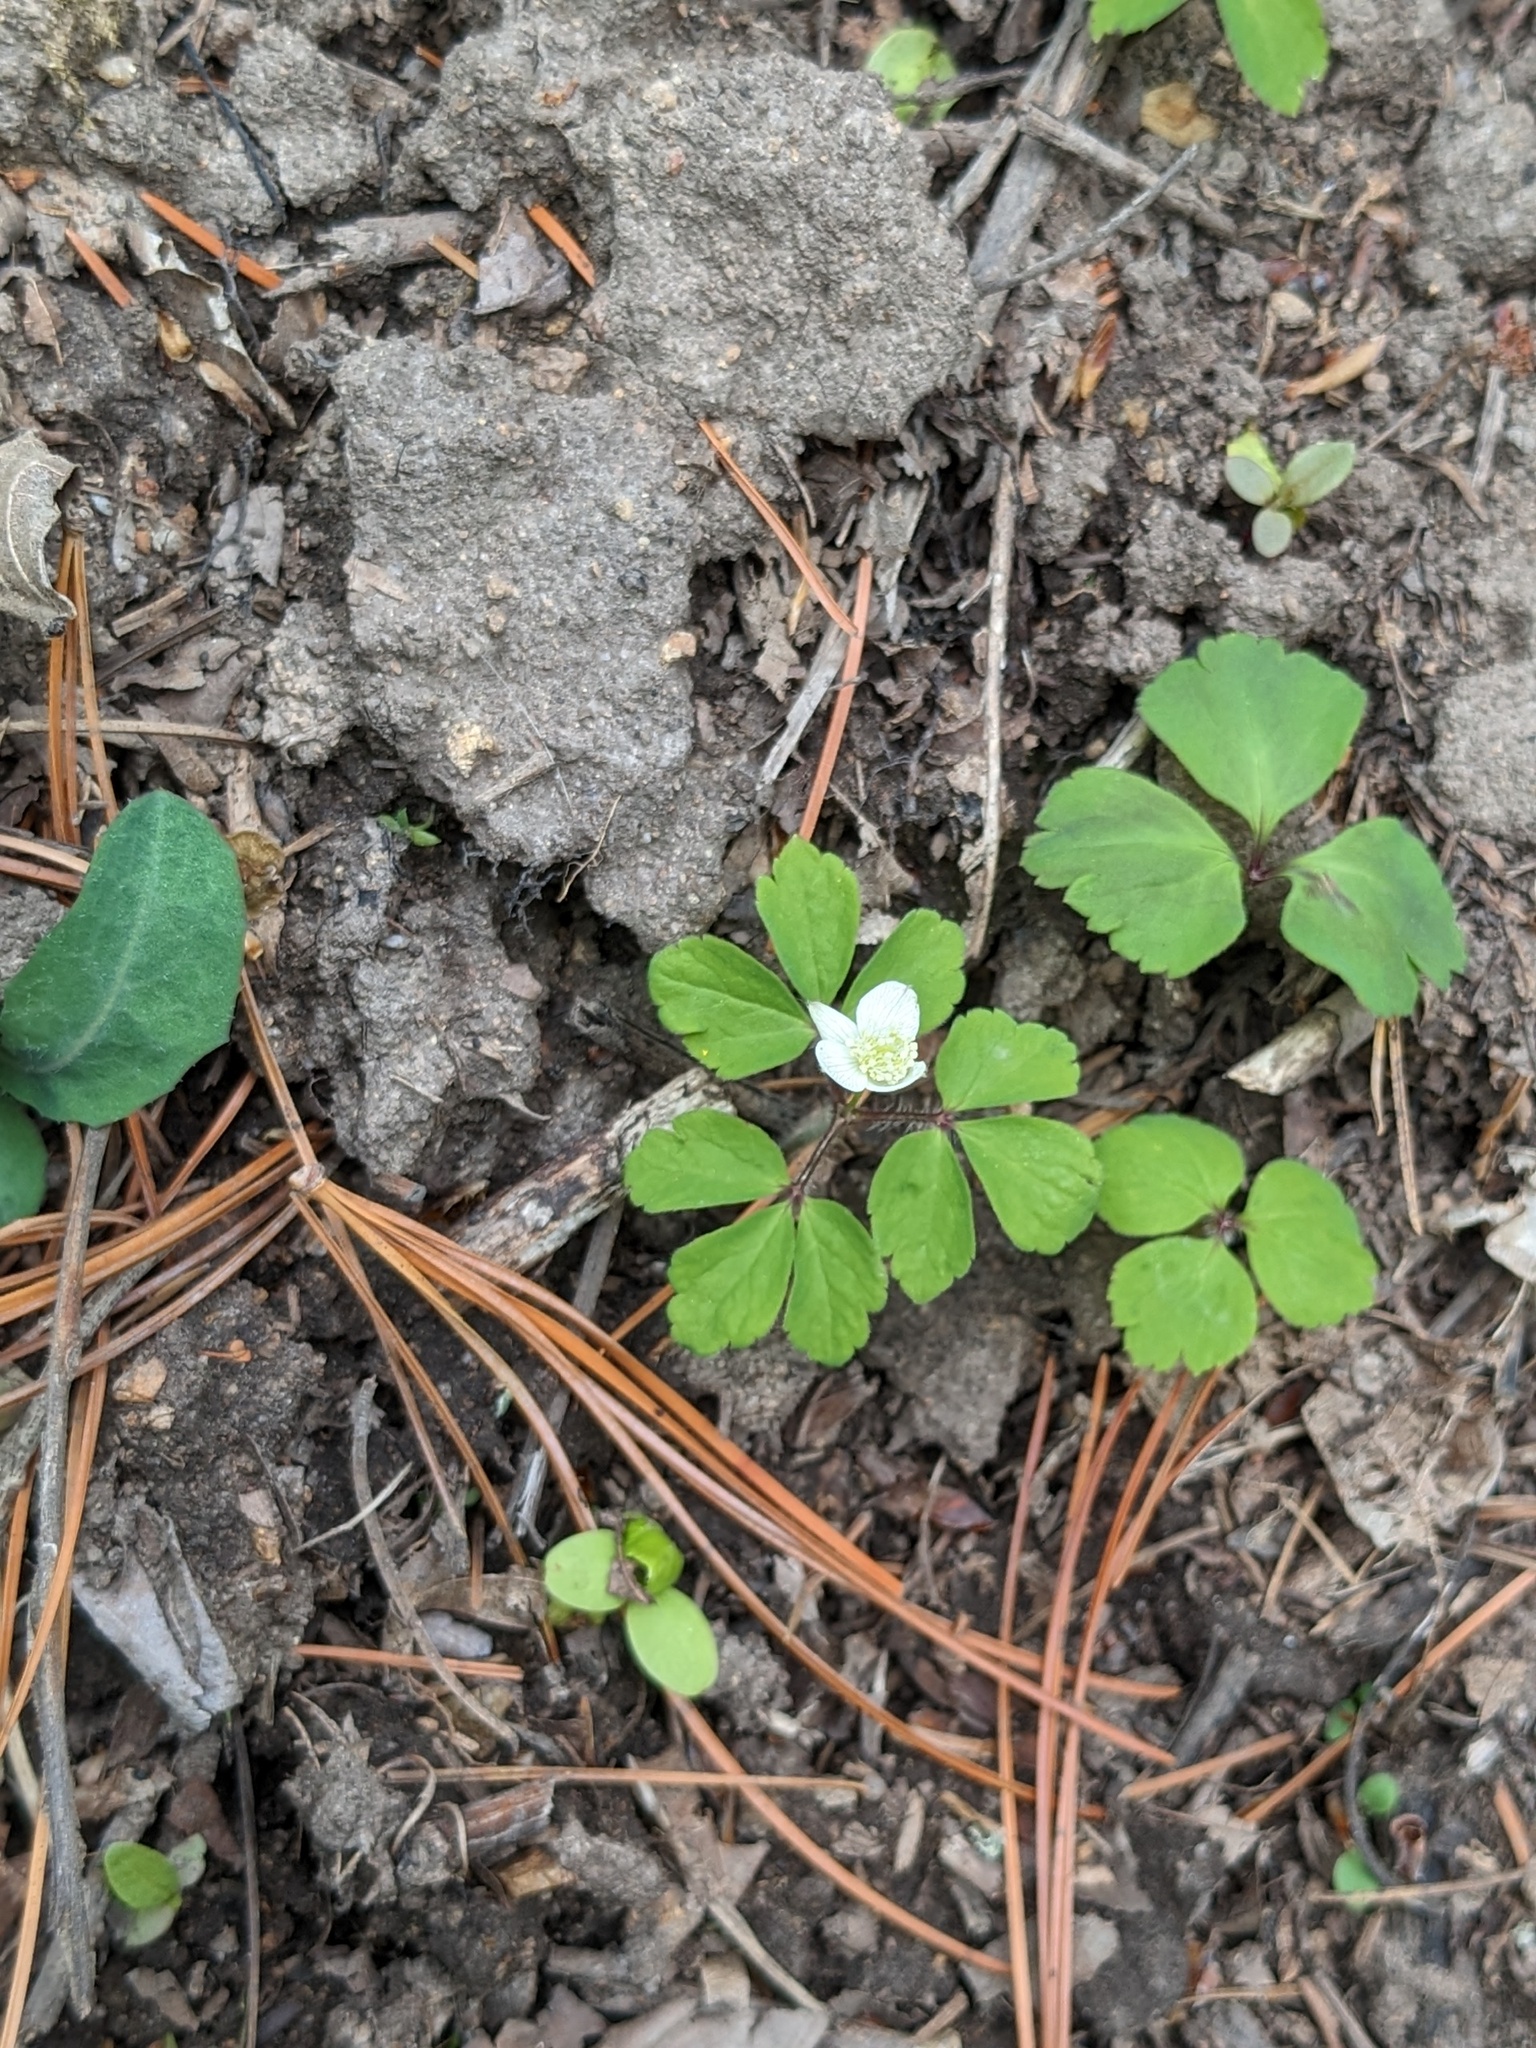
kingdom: Plantae
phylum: Tracheophyta
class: Magnoliopsida
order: Ranunculales
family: Ranunculaceae
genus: Anemone
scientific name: Anemone udensis
